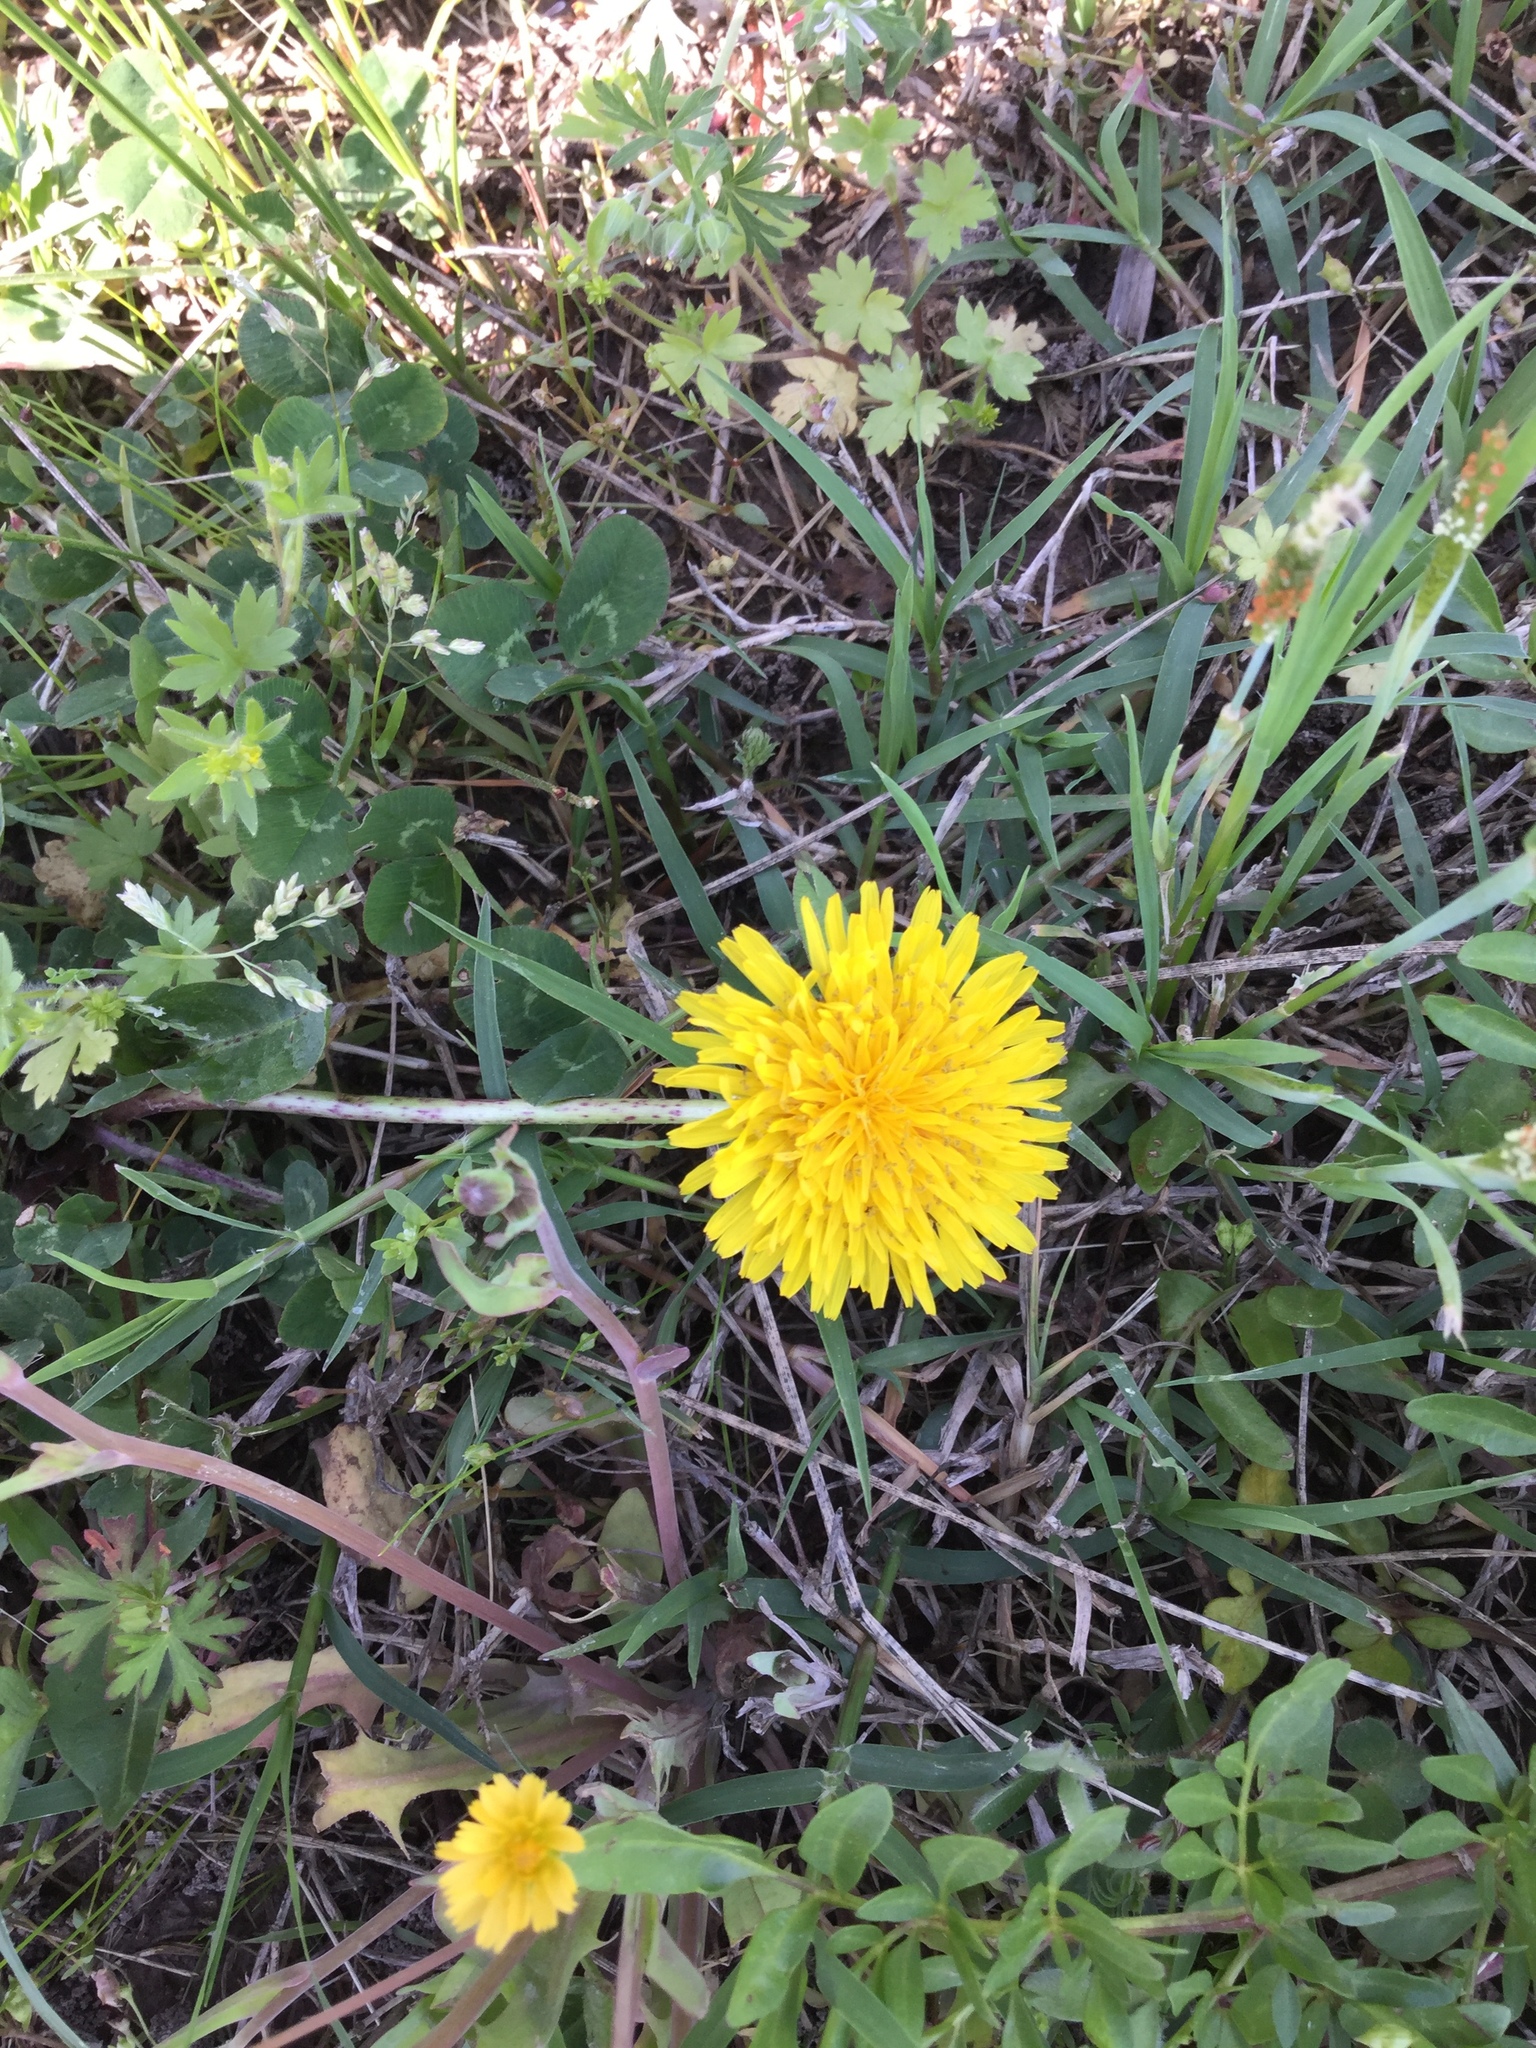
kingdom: Plantae
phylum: Tracheophyta
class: Magnoliopsida
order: Asterales
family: Asteraceae
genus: Taraxacum
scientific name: Taraxacum officinale
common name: Common dandelion
